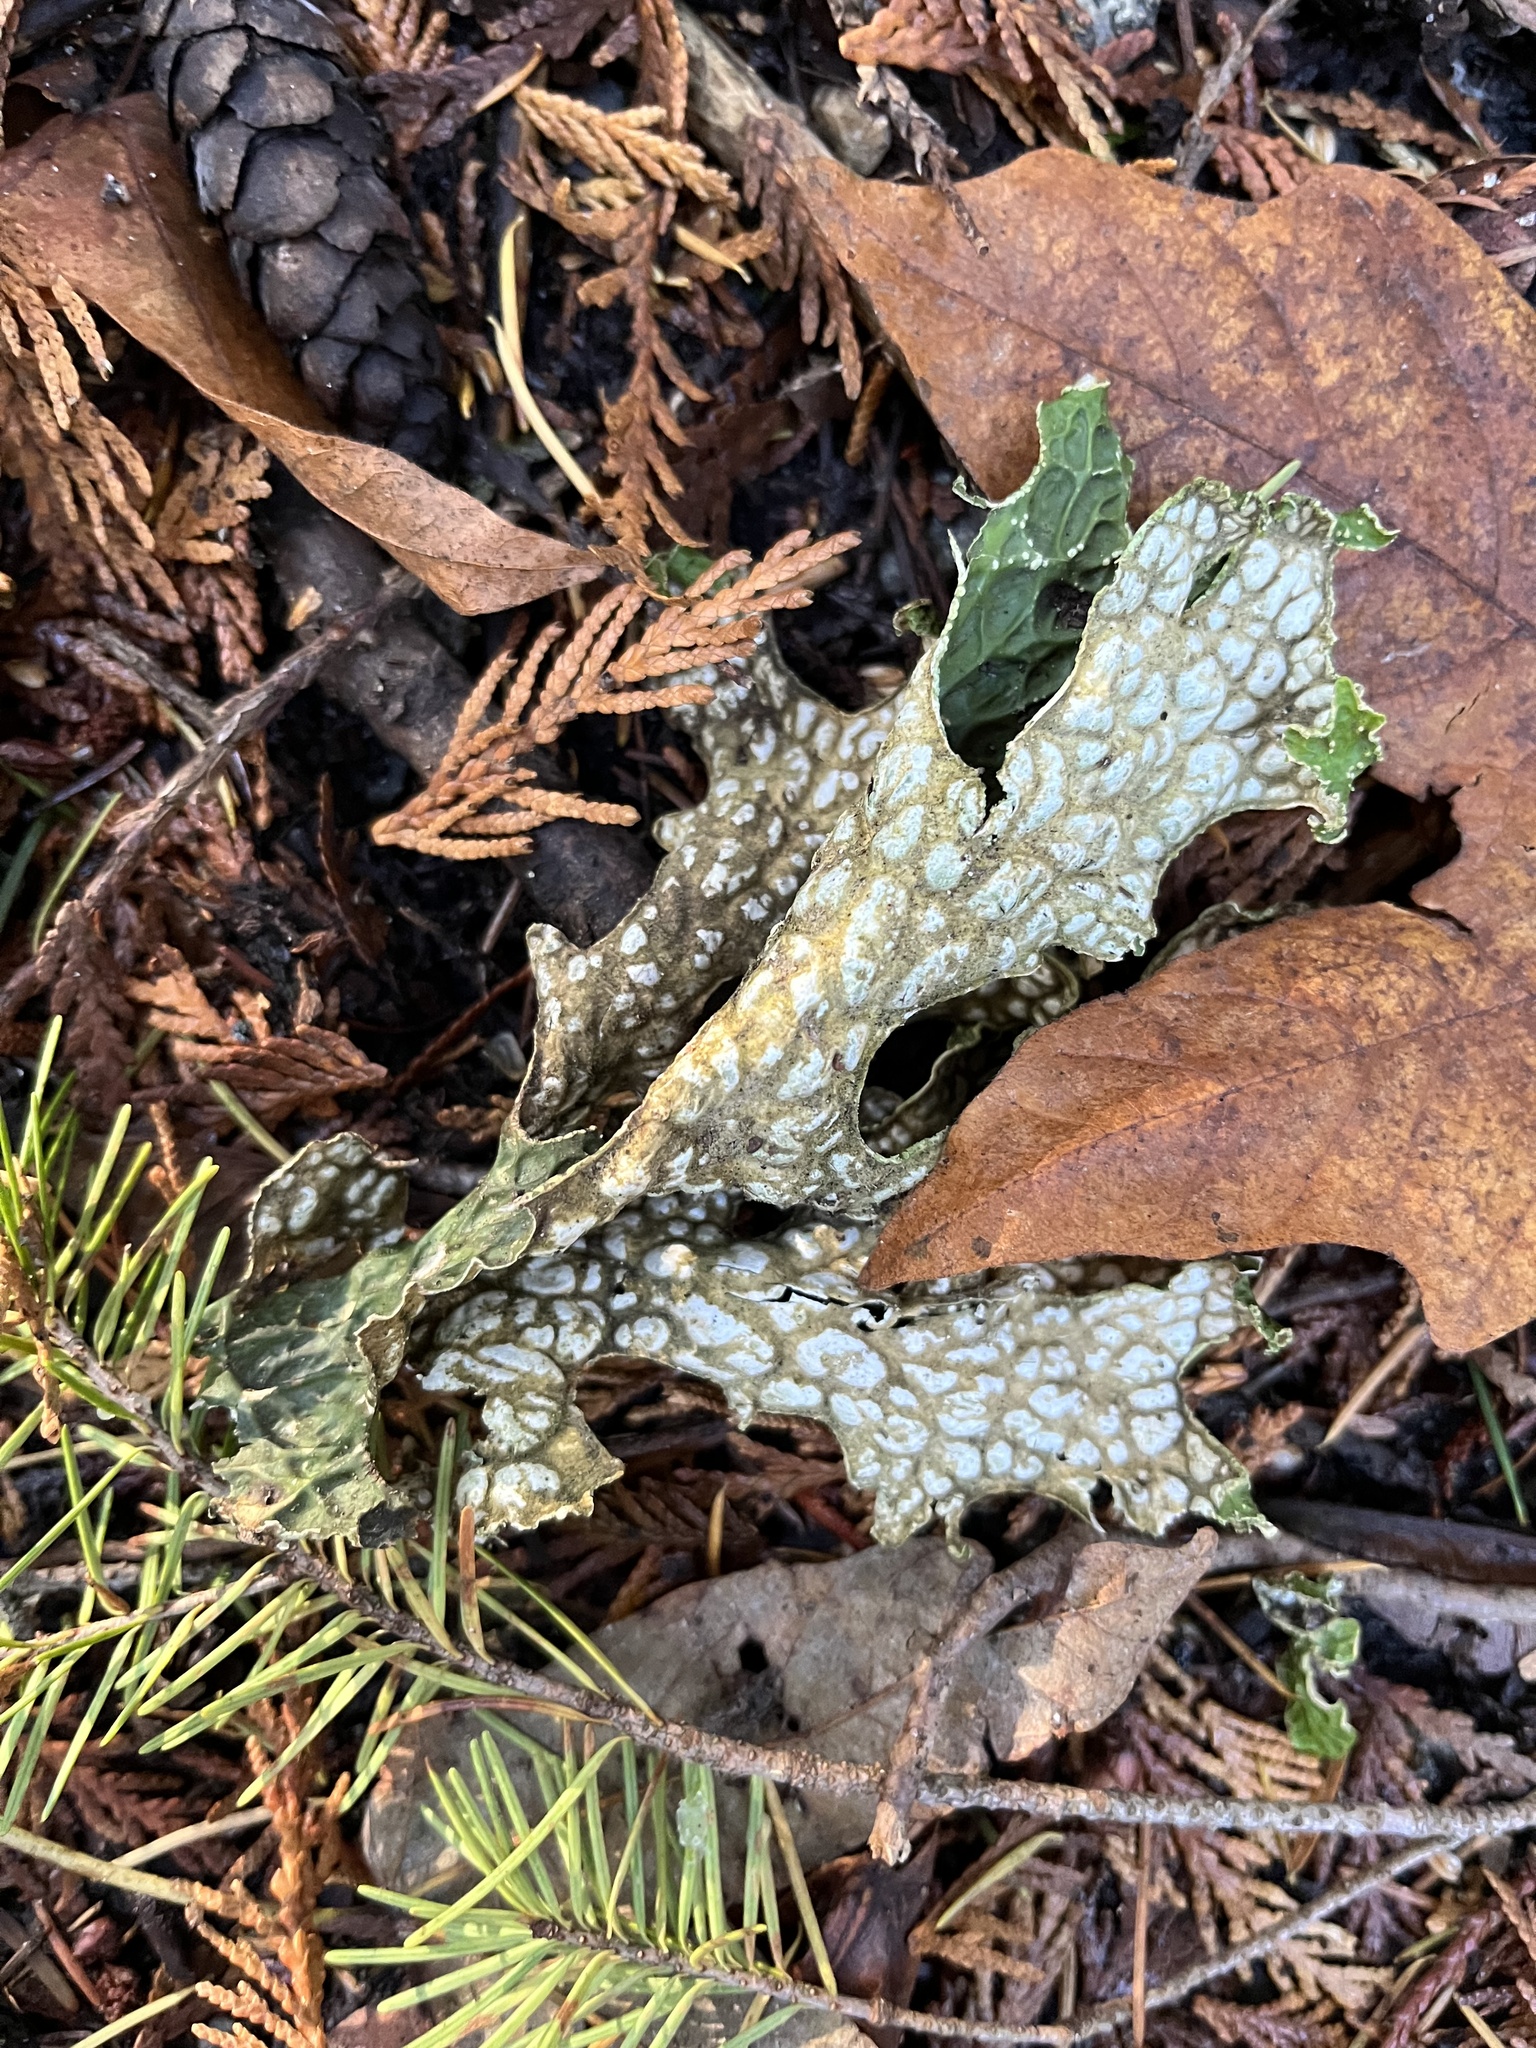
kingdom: Fungi
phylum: Ascomycota
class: Lecanoromycetes
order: Peltigerales
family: Lobariaceae
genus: Lobaria
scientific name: Lobaria pulmonaria
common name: Lungwort
